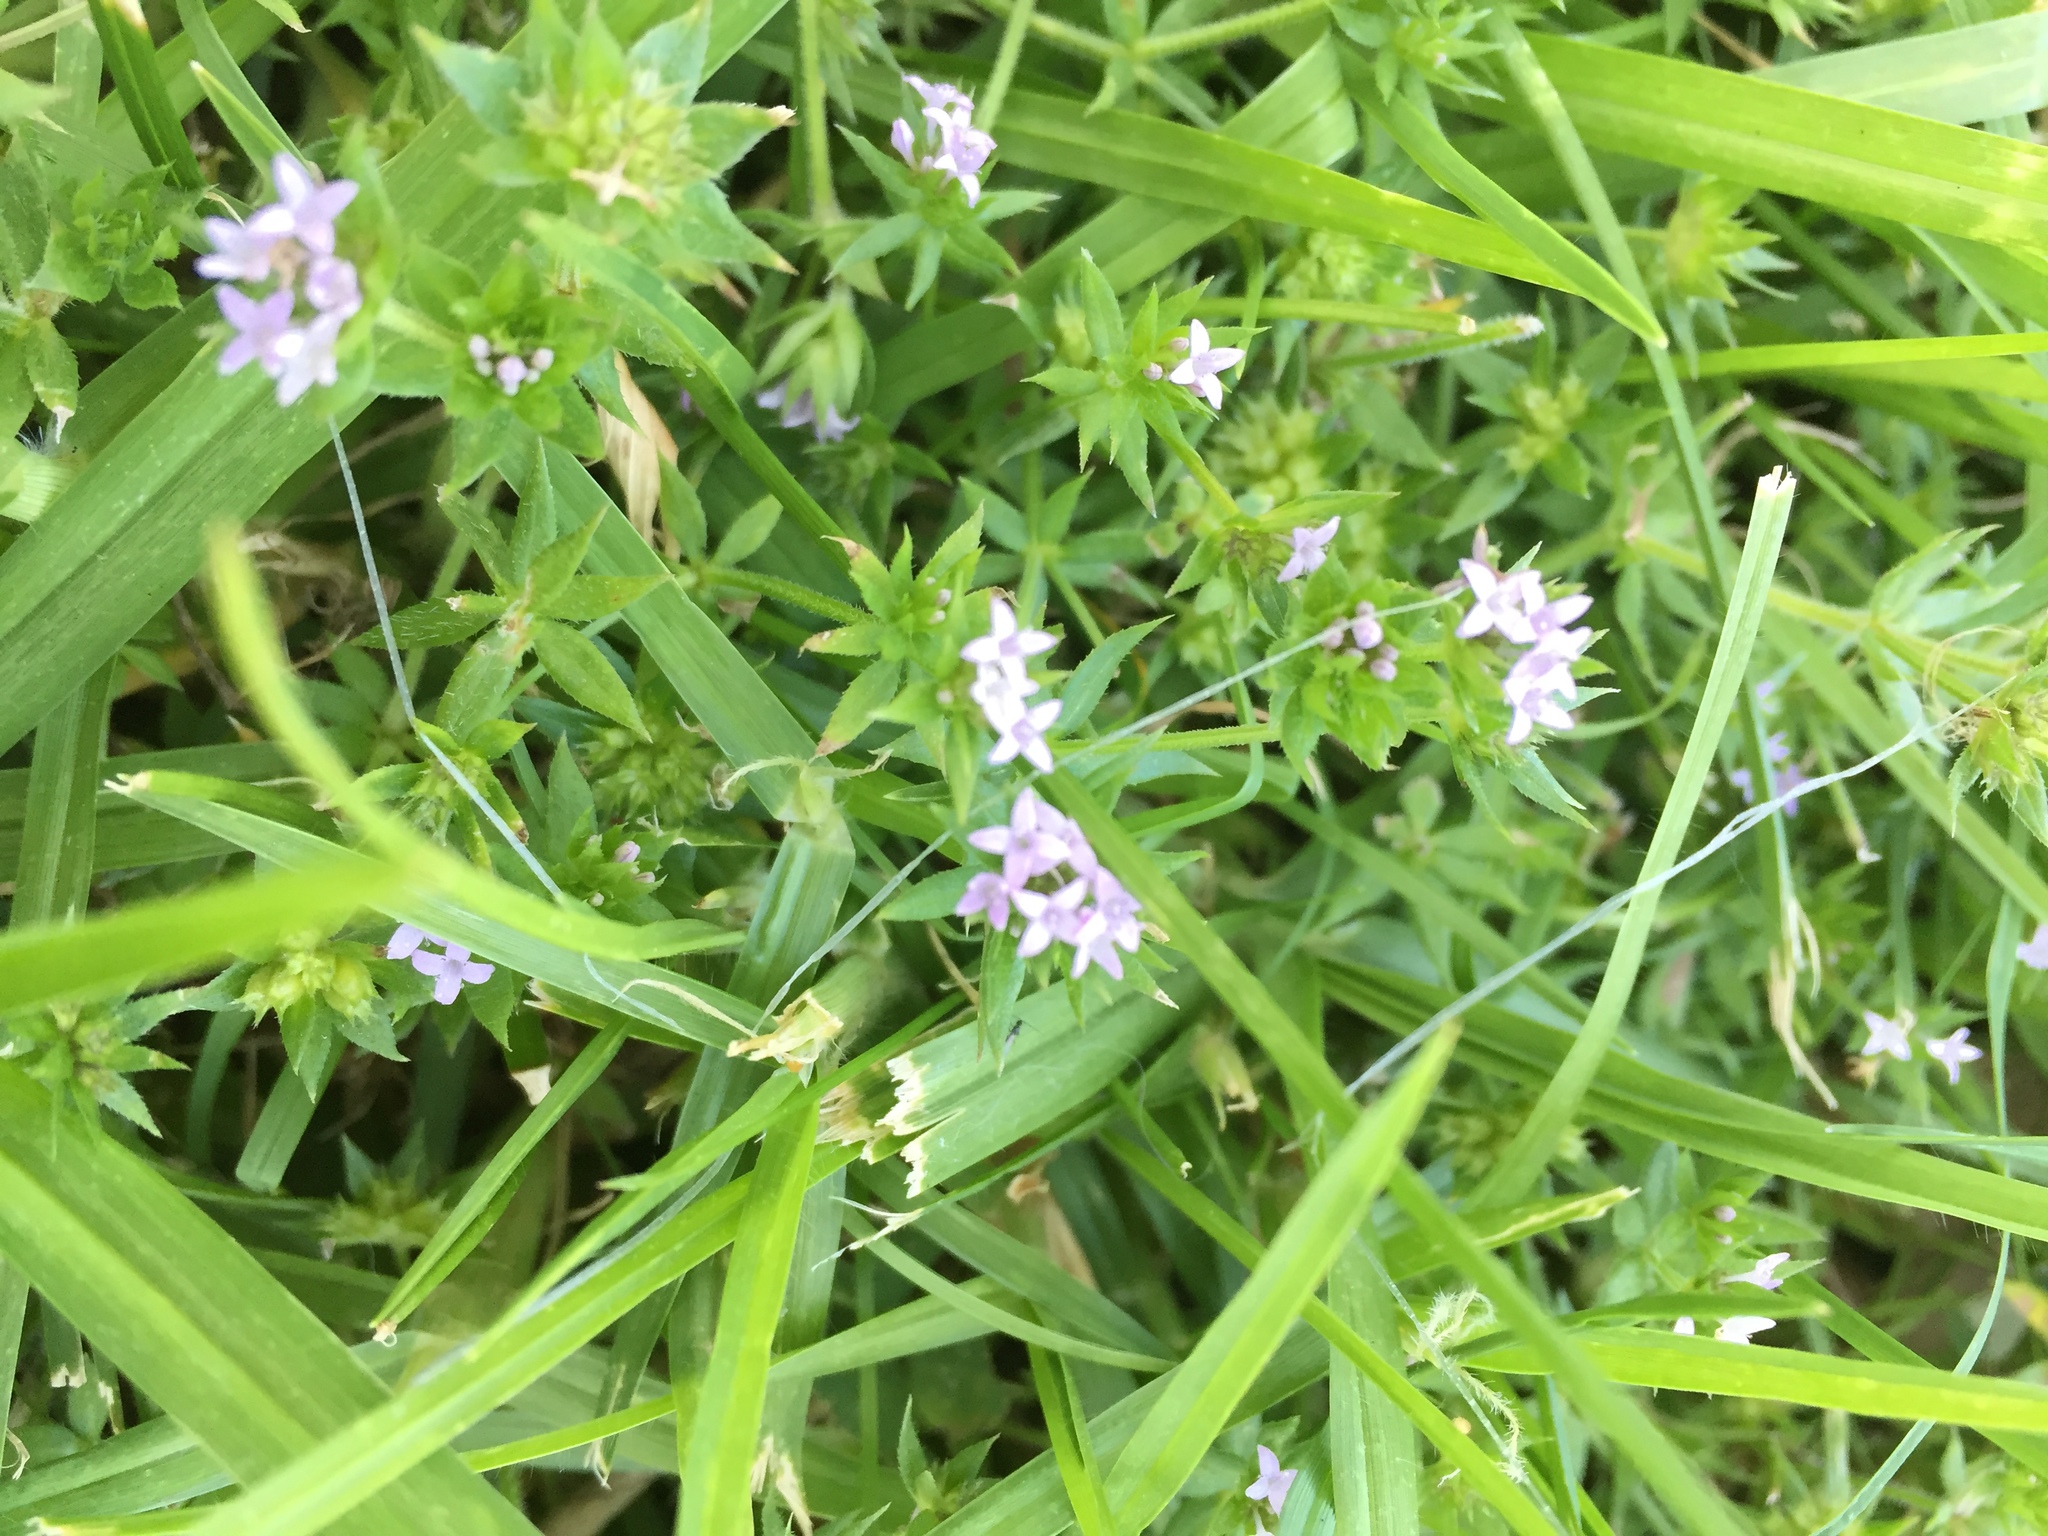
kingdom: Plantae
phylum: Tracheophyta
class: Magnoliopsida
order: Gentianales
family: Rubiaceae
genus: Sherardia
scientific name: Sherardia arvensis
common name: Field madder
